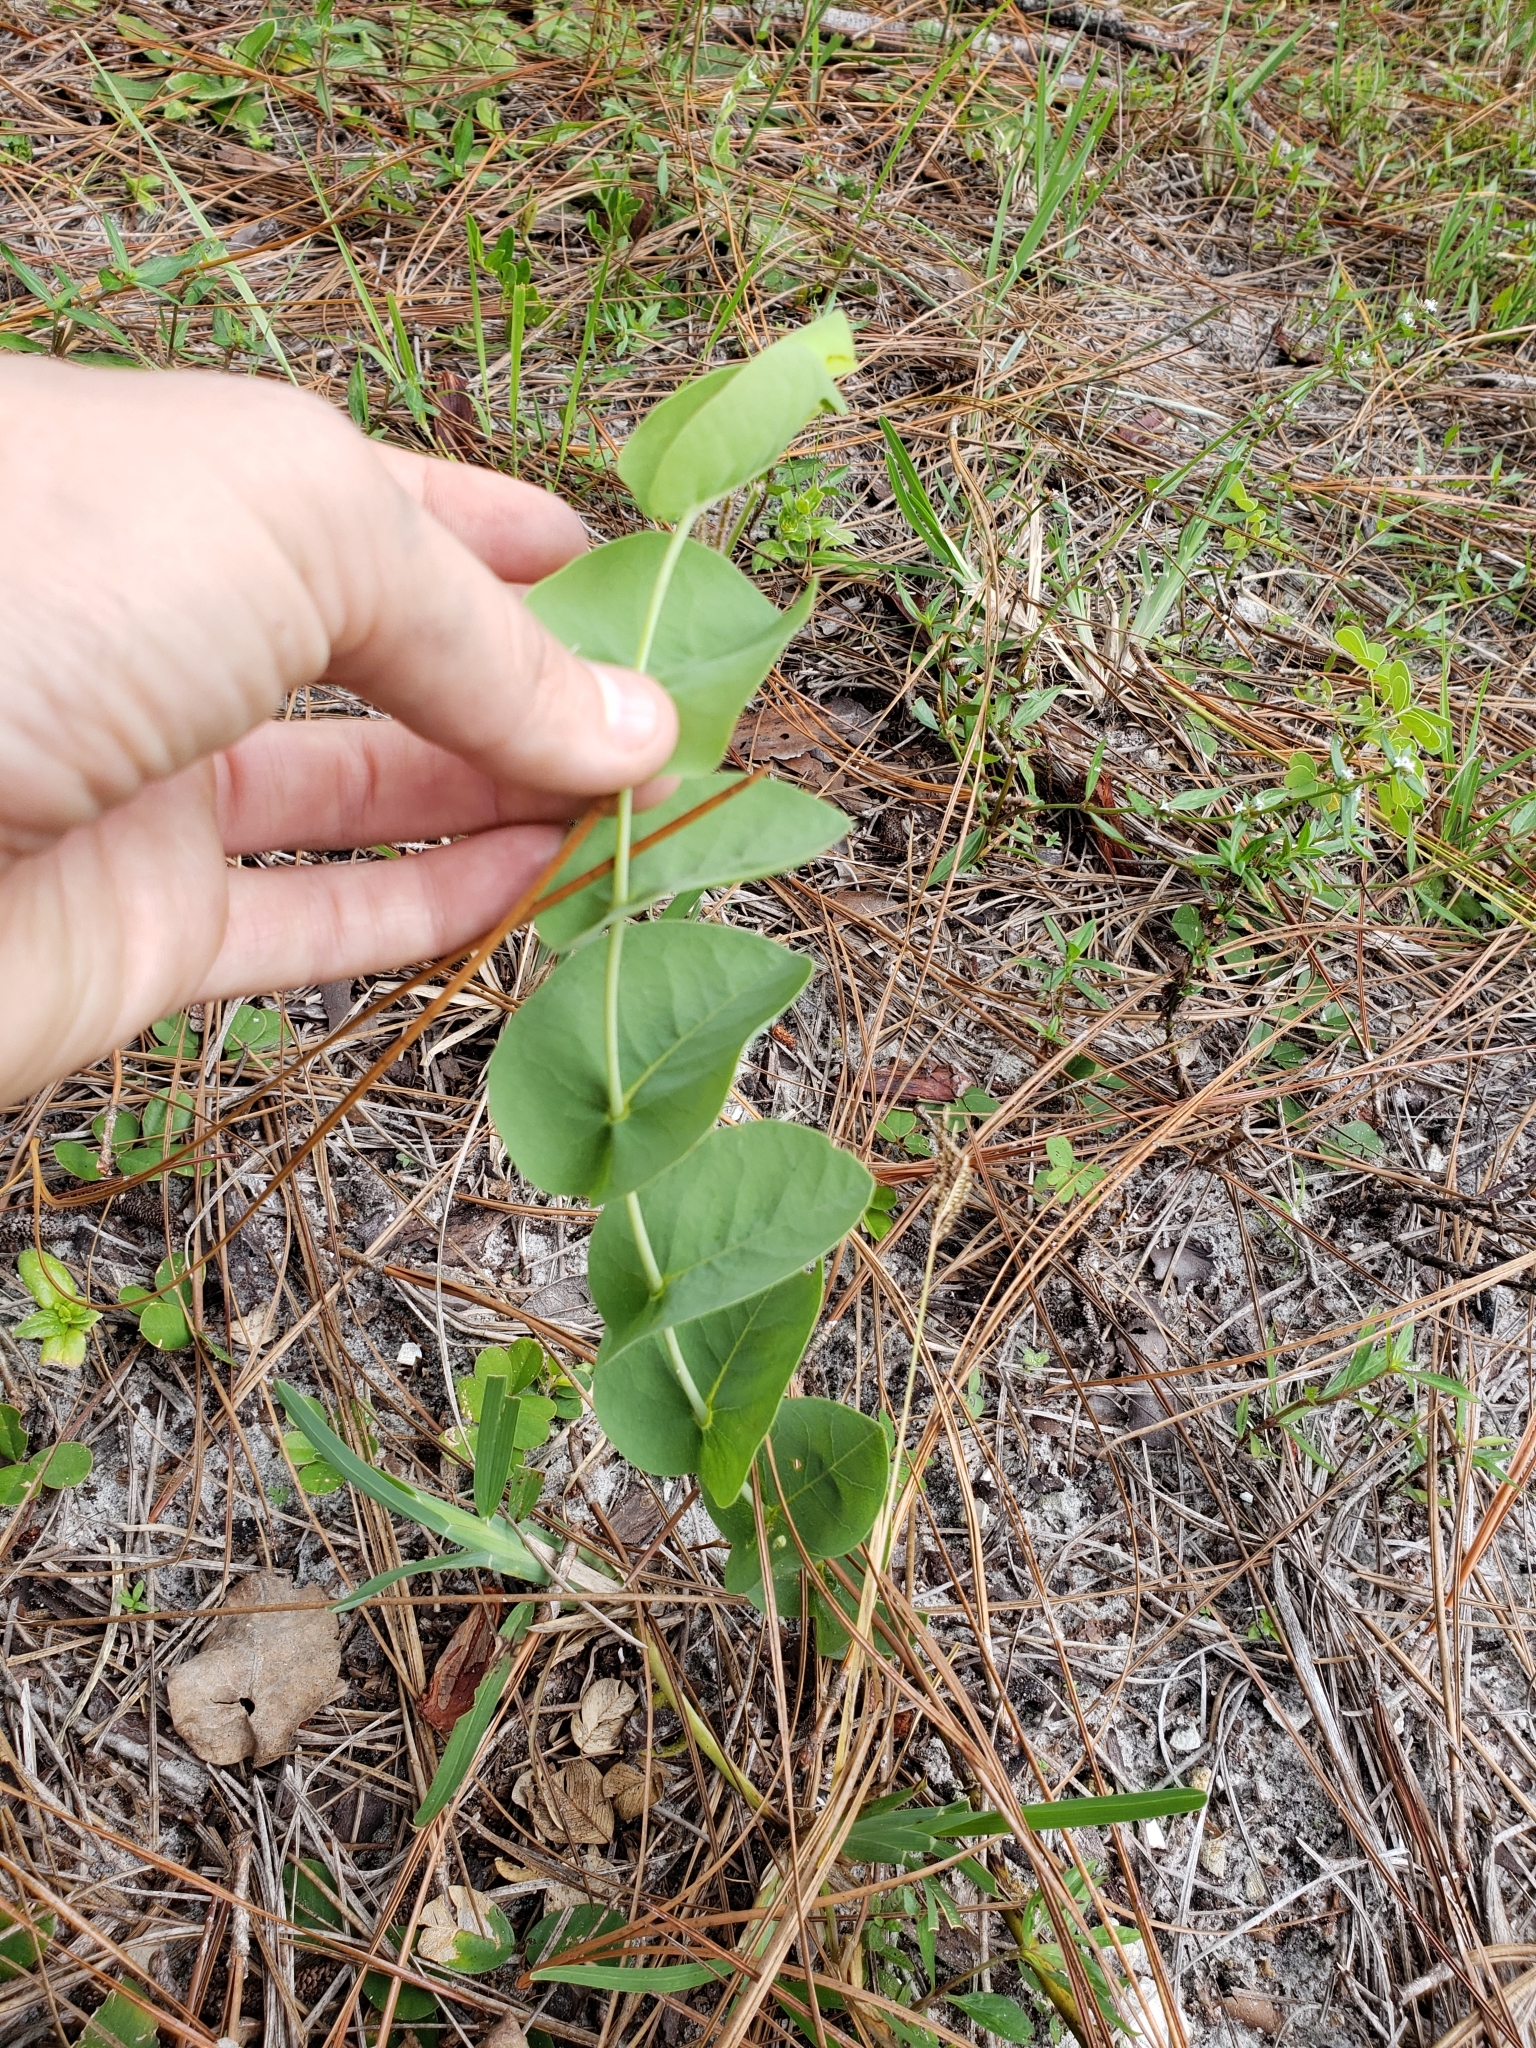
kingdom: Plantae
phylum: Tracheophyta
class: Magnoliopsida
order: Fabales
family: Fabaceae
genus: Baptisia
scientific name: Baptisia perfoliata
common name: Catbells
